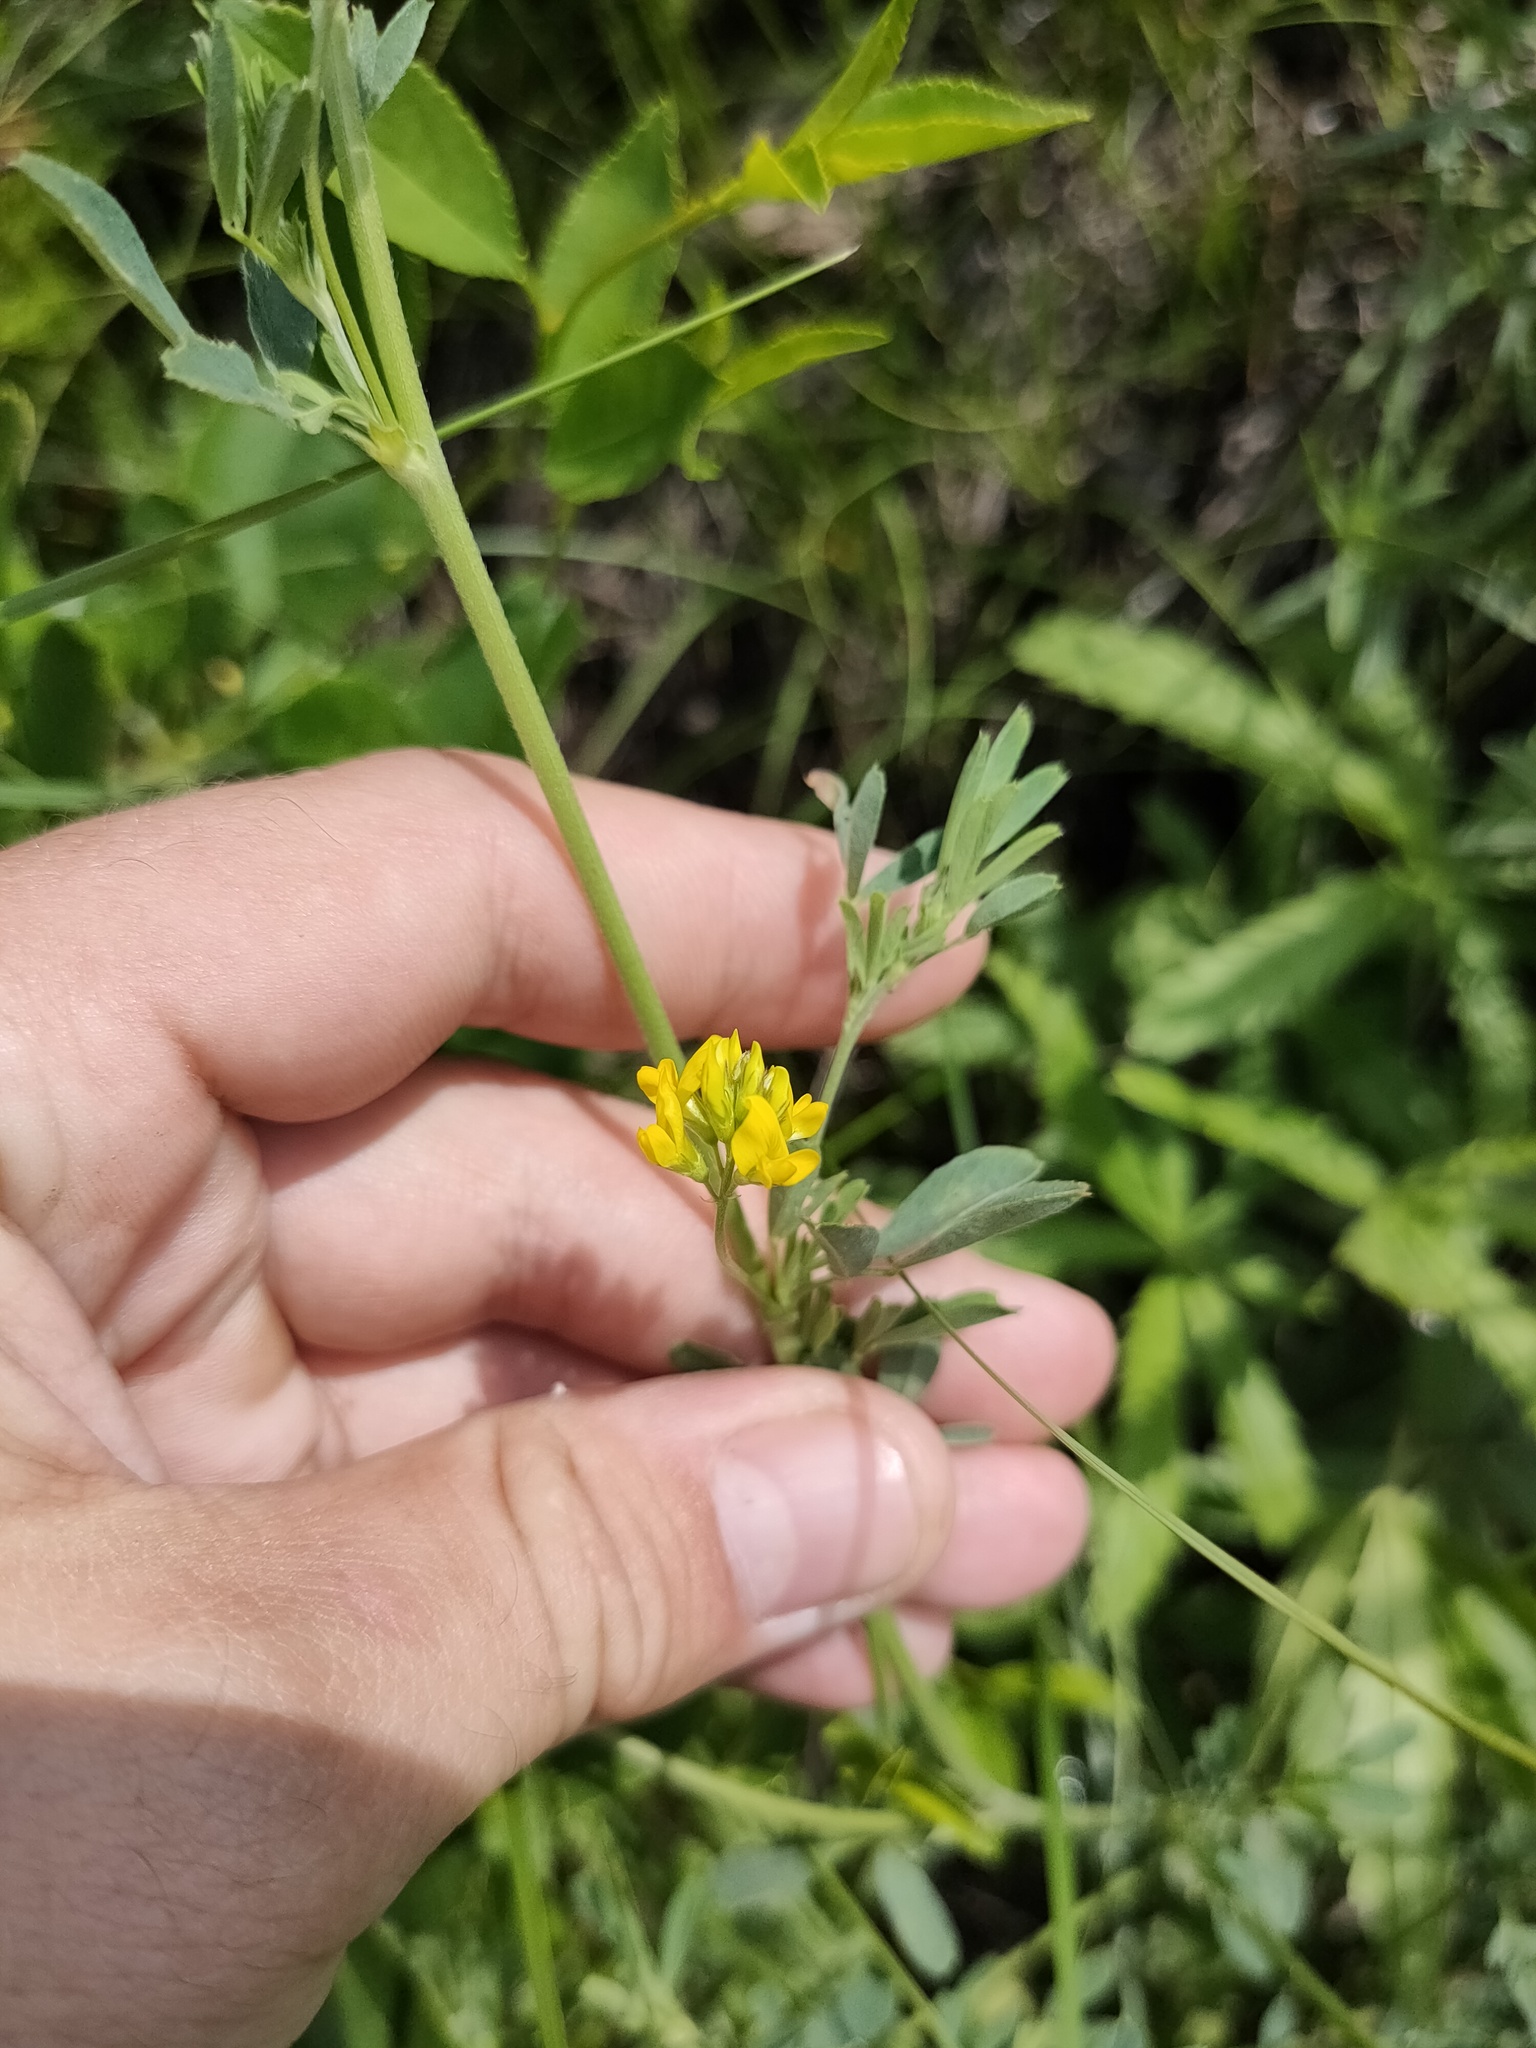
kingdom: Plantae
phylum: Tracheophyta
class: Magnoliopsida
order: Fabales
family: Fabaceae
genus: Medicago
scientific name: Medicago falcata
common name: Sickle medick
